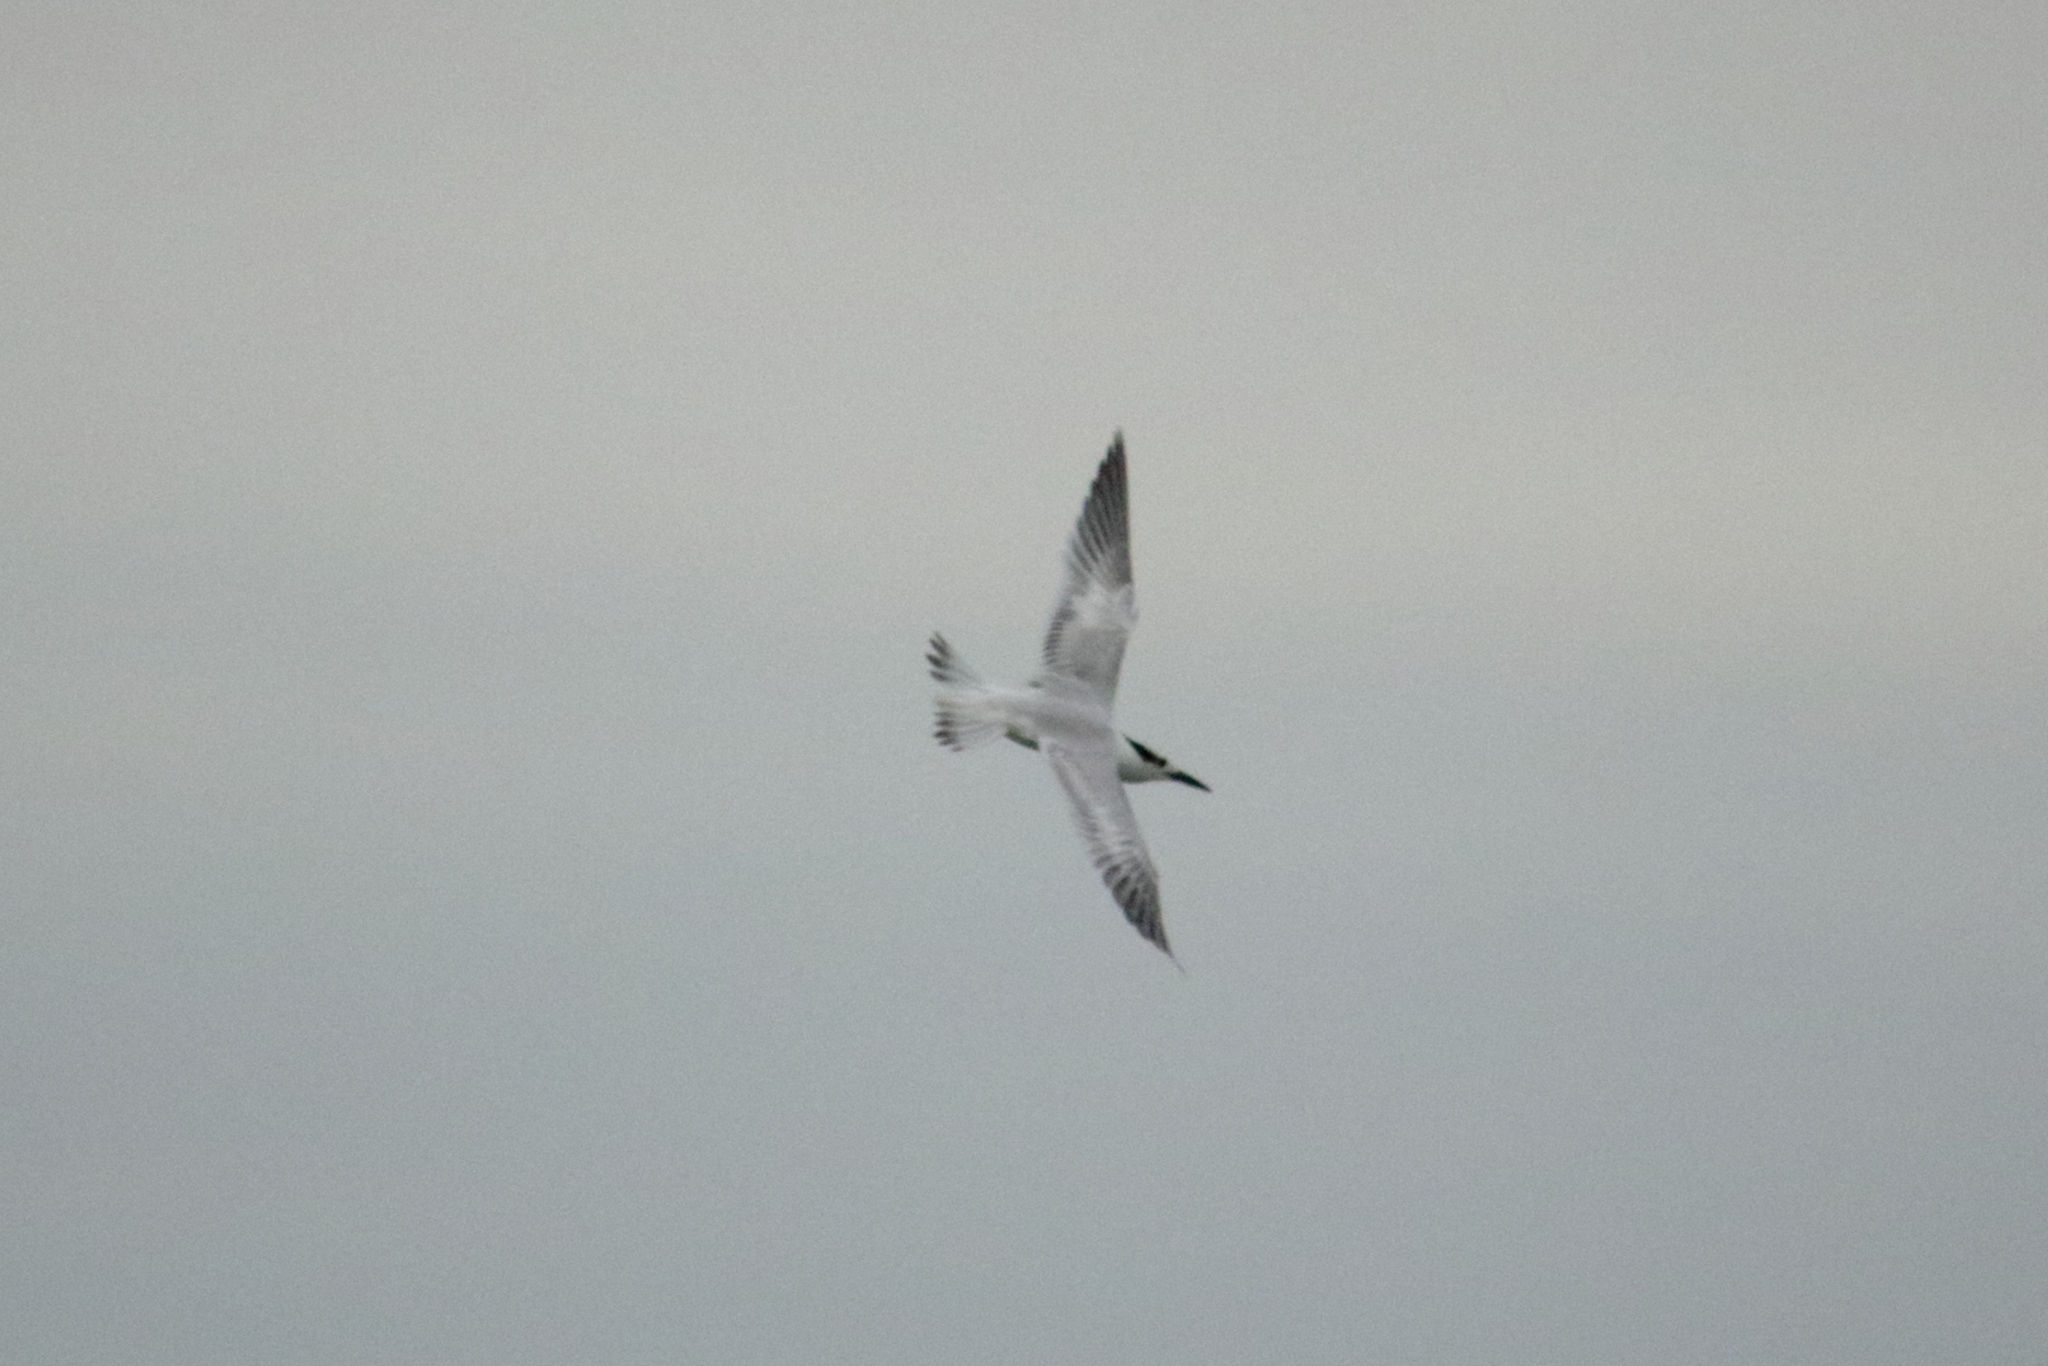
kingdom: Animalia
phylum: Chordata
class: Aves
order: Charadriiformes
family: Laridae
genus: Thalasseus
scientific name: Thalasseus acuflavidus
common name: Cabot's tern
